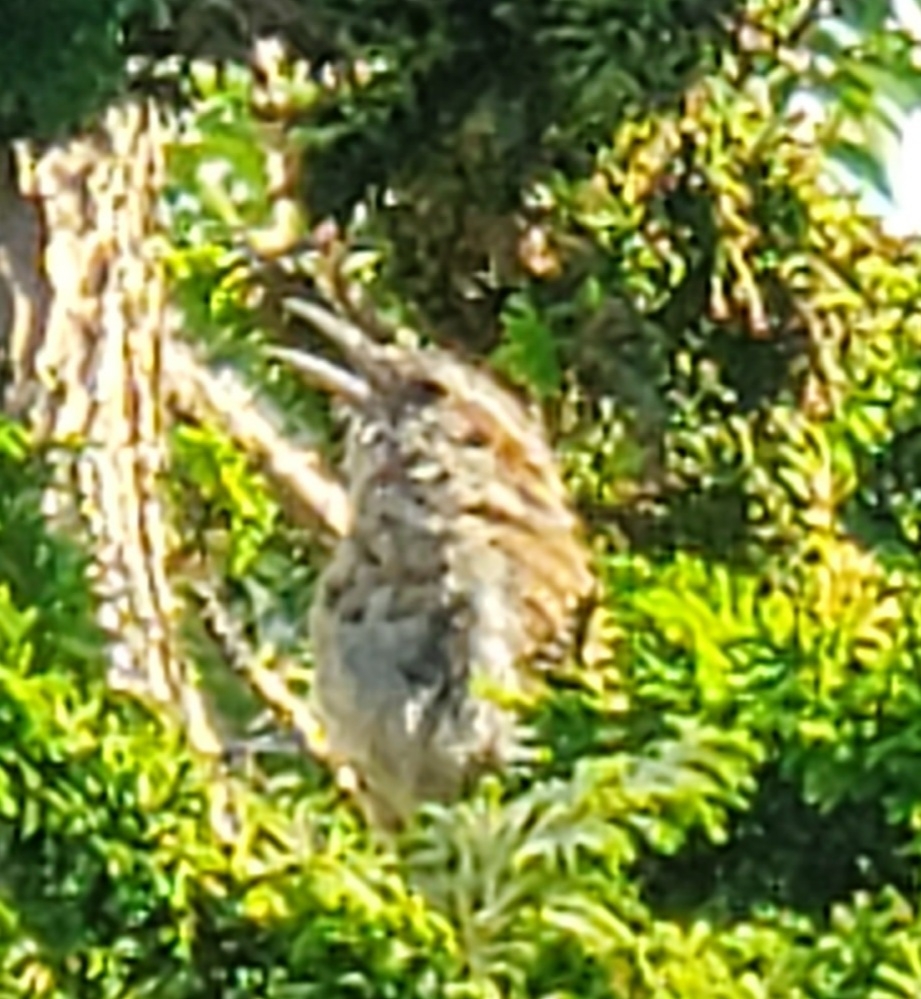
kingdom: Animalia
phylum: Chordata
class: Aves
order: Passeriformes
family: Troglodytidae
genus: Thryothorus
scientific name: Thryothorus ludovicianus
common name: Carolina wren
